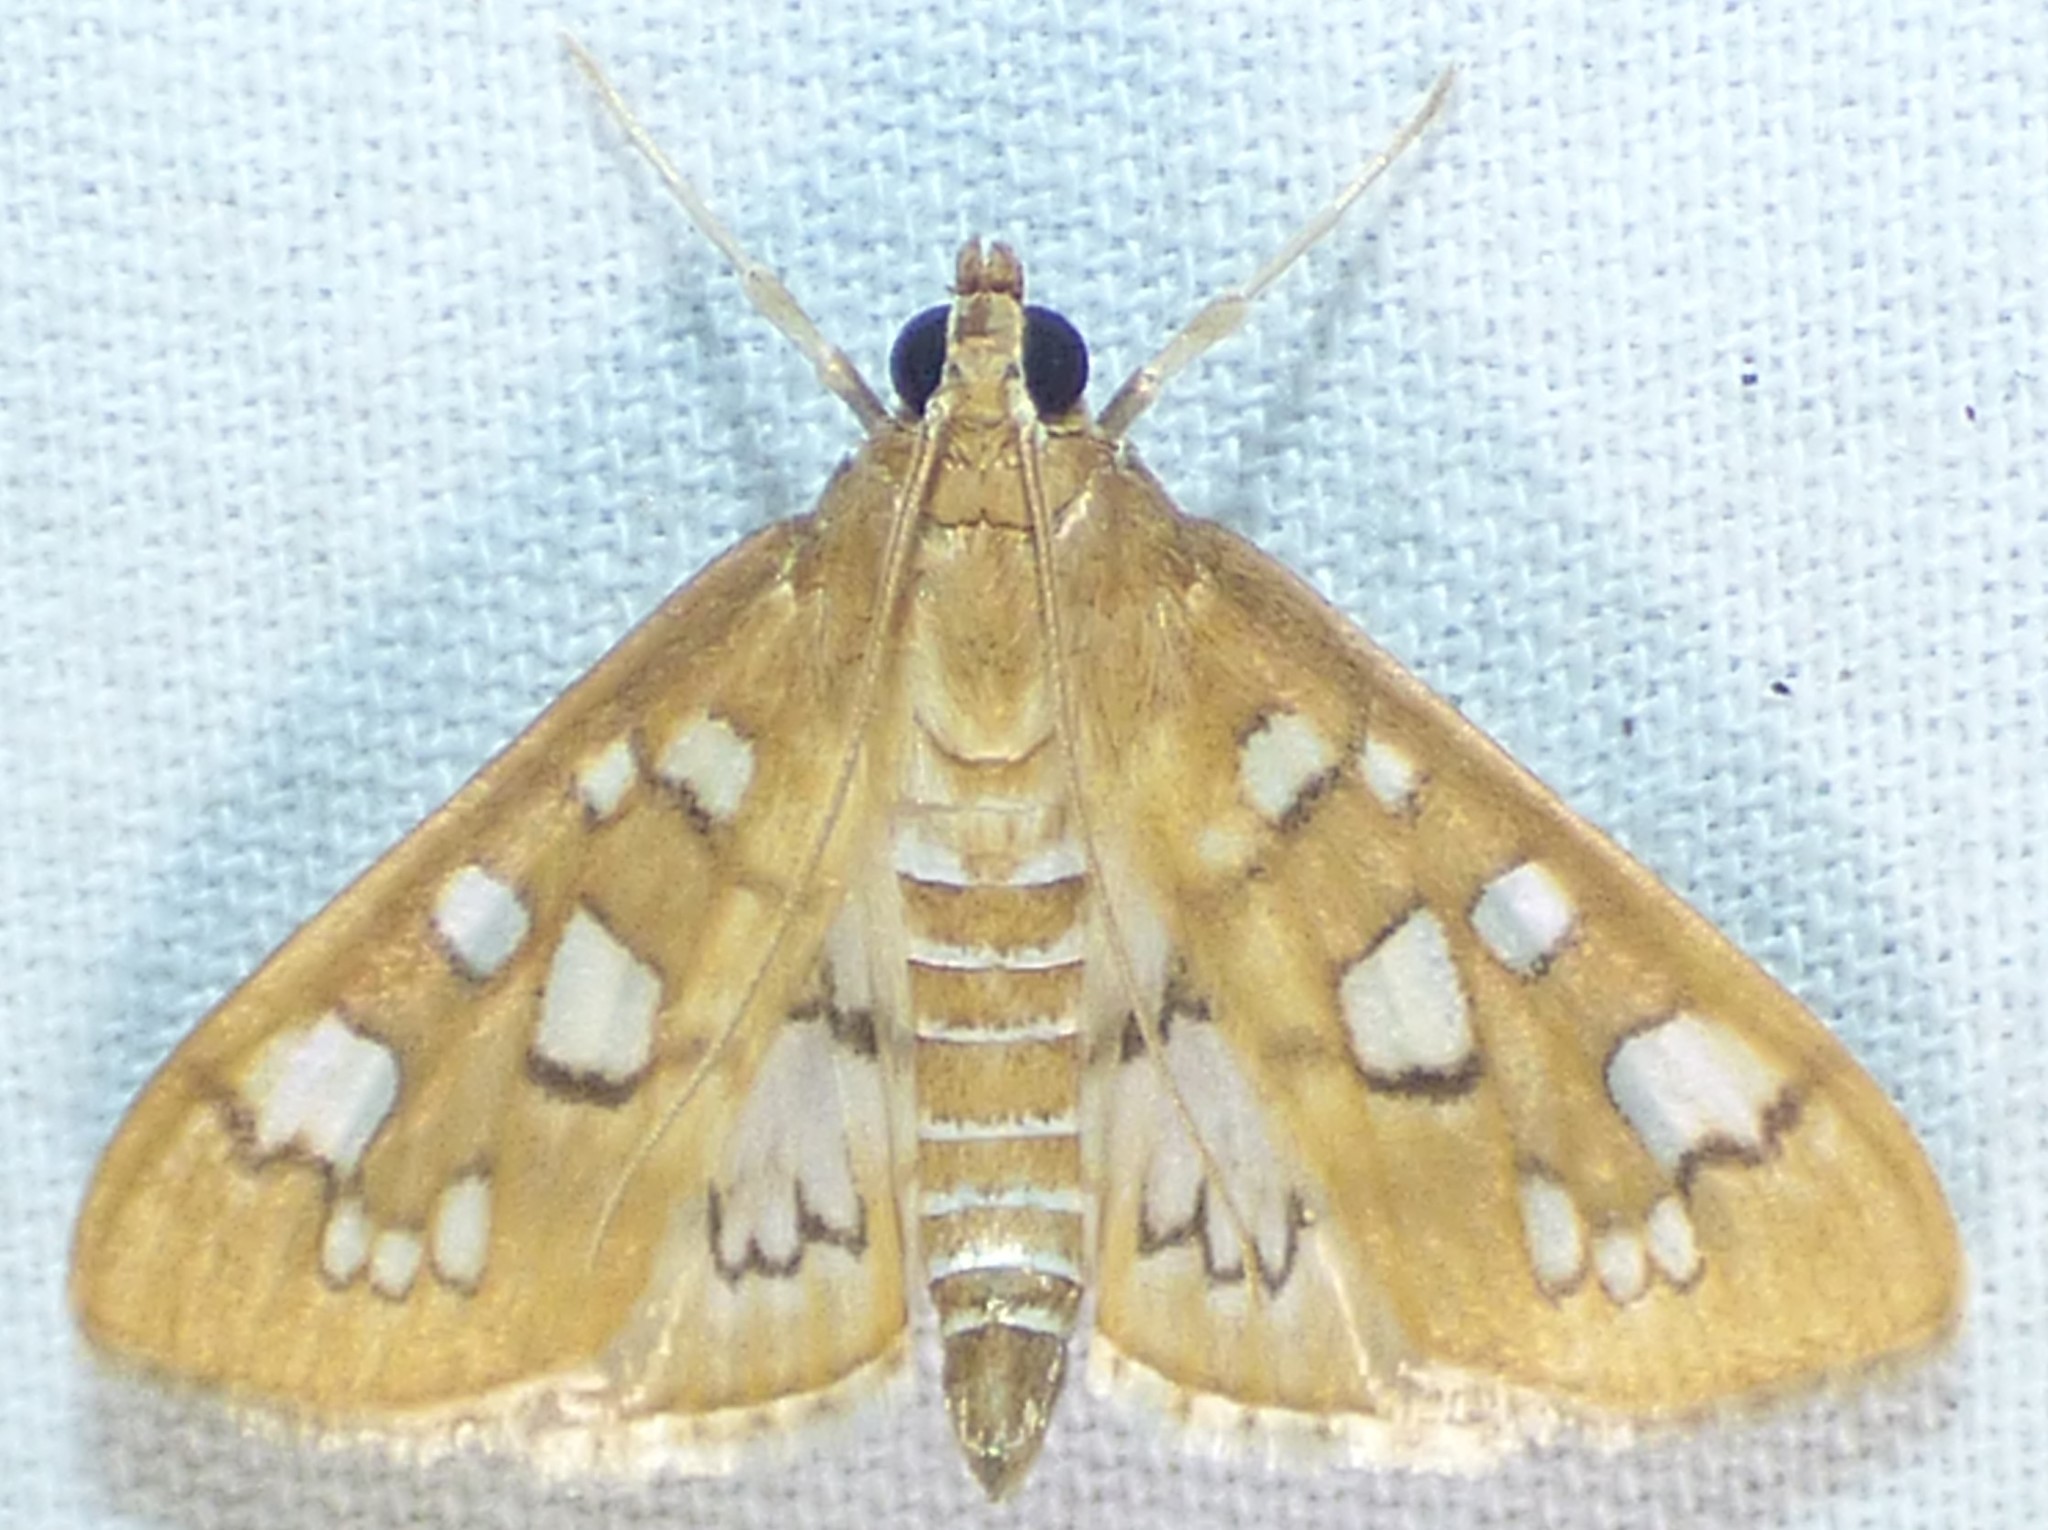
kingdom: Animalia
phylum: Arthropoda
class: Insecta
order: Lepidoptera
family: Crambidae
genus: Samea
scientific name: Samea baccatalis
